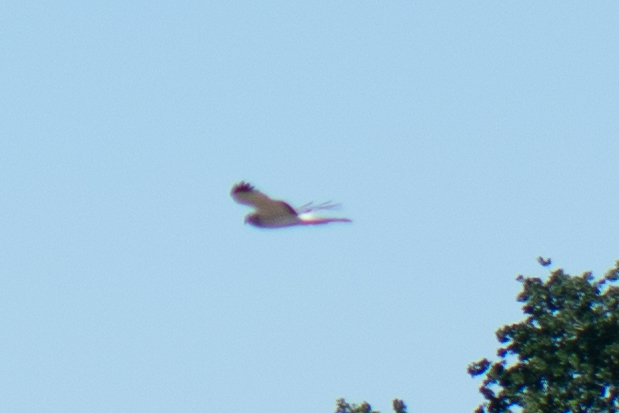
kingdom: Animalia
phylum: Chordata
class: Aves
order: Accipitriformes
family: Accipitridae
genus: Circus
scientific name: Circus cyaneus
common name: Hen harrier
